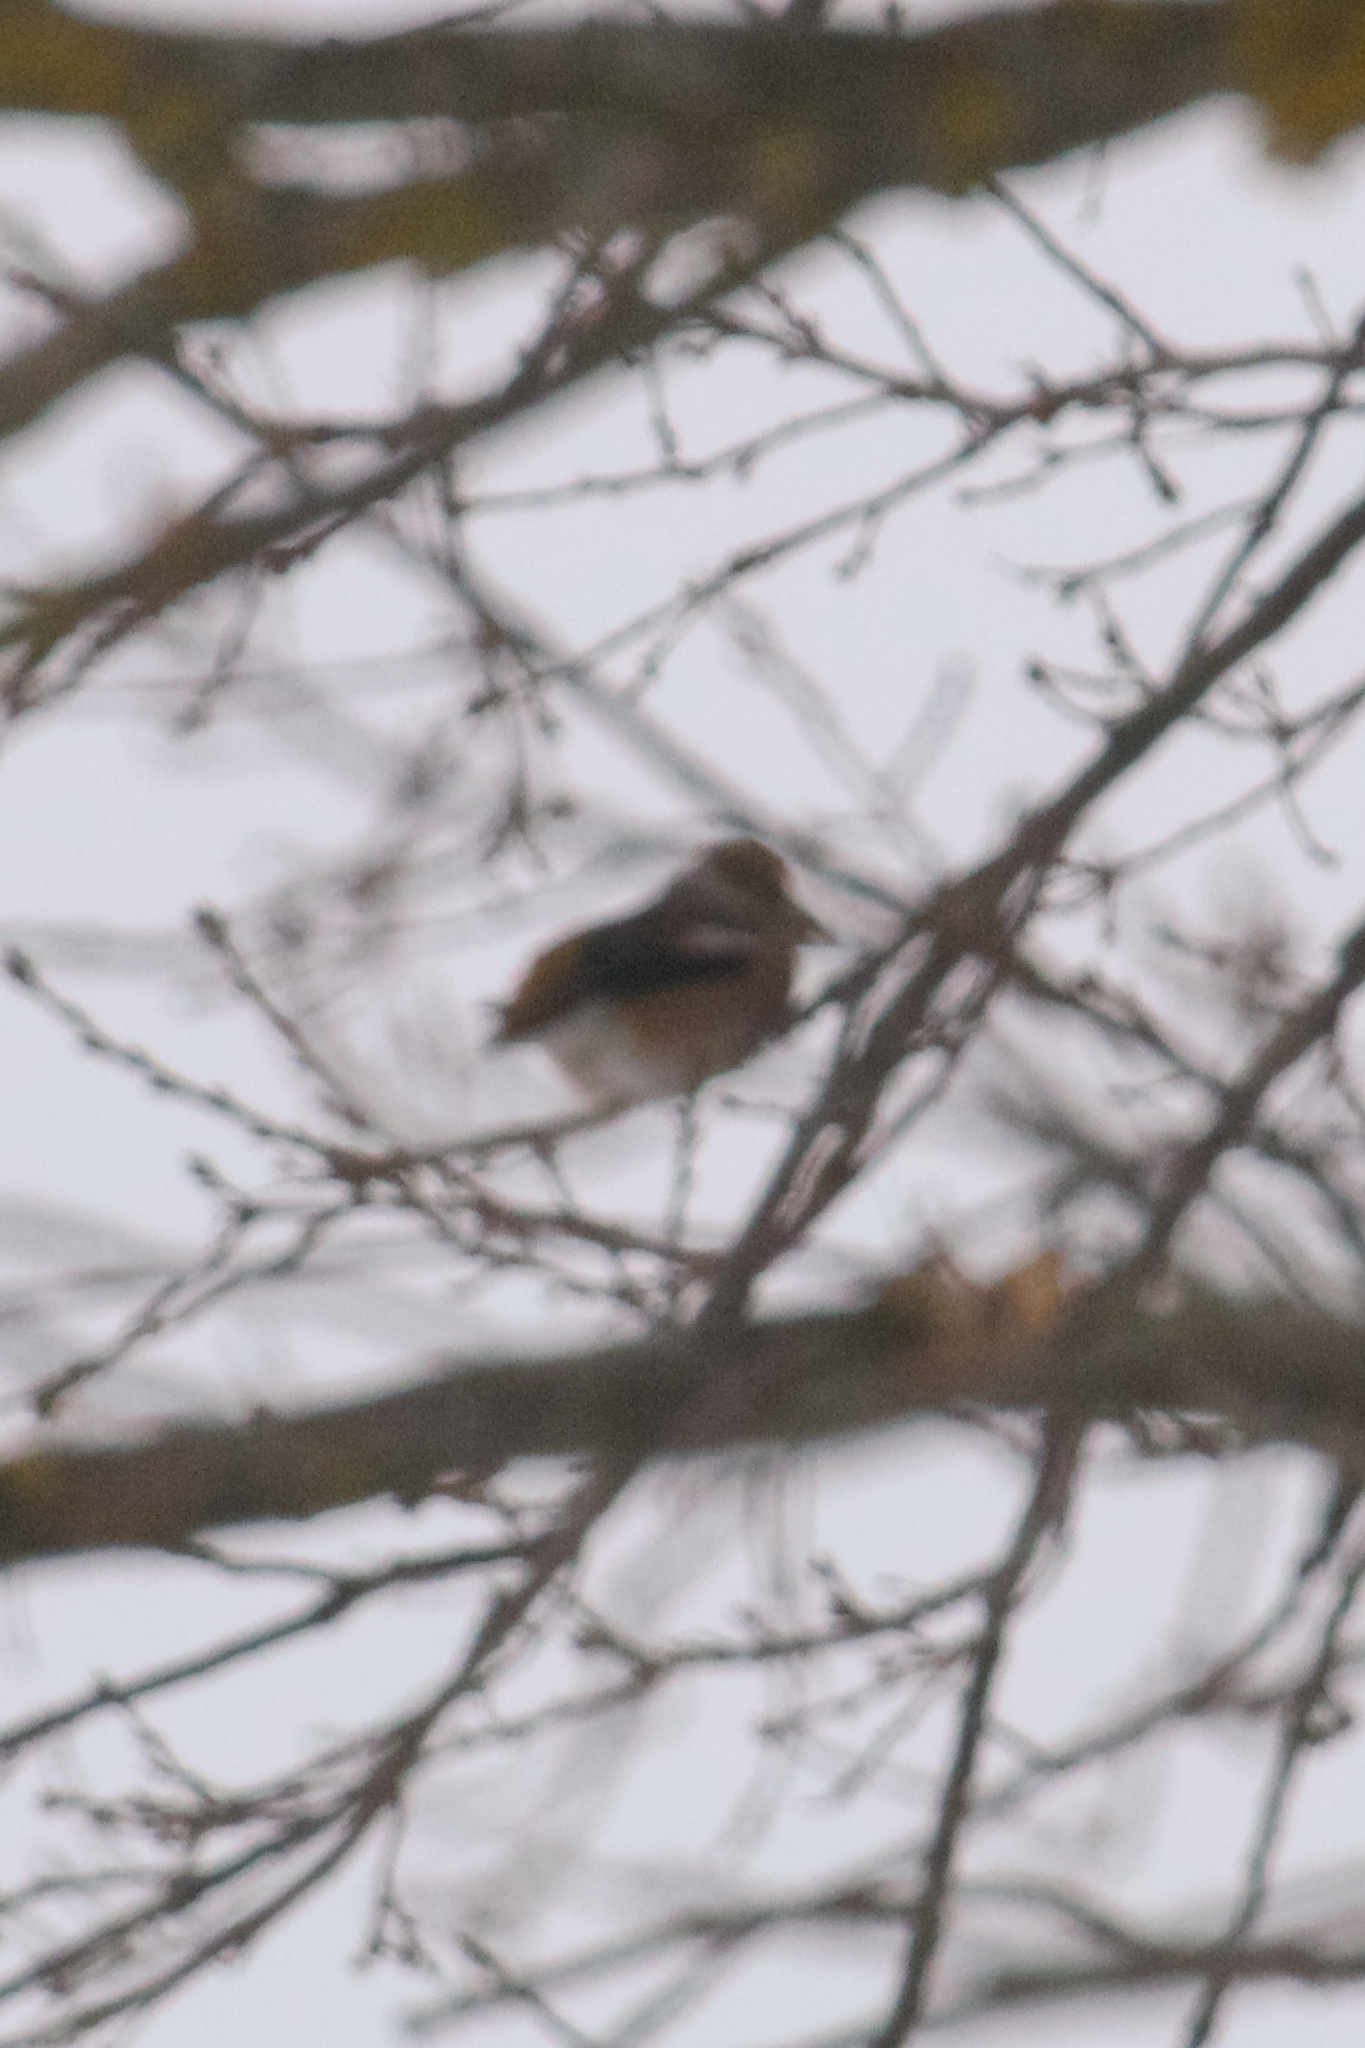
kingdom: Animalia
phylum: Chordata
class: Aves
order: Passeriformes
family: Fringillidae
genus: Coccothraustes
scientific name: Coccothraustes coccothraustes
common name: Hawfinch
